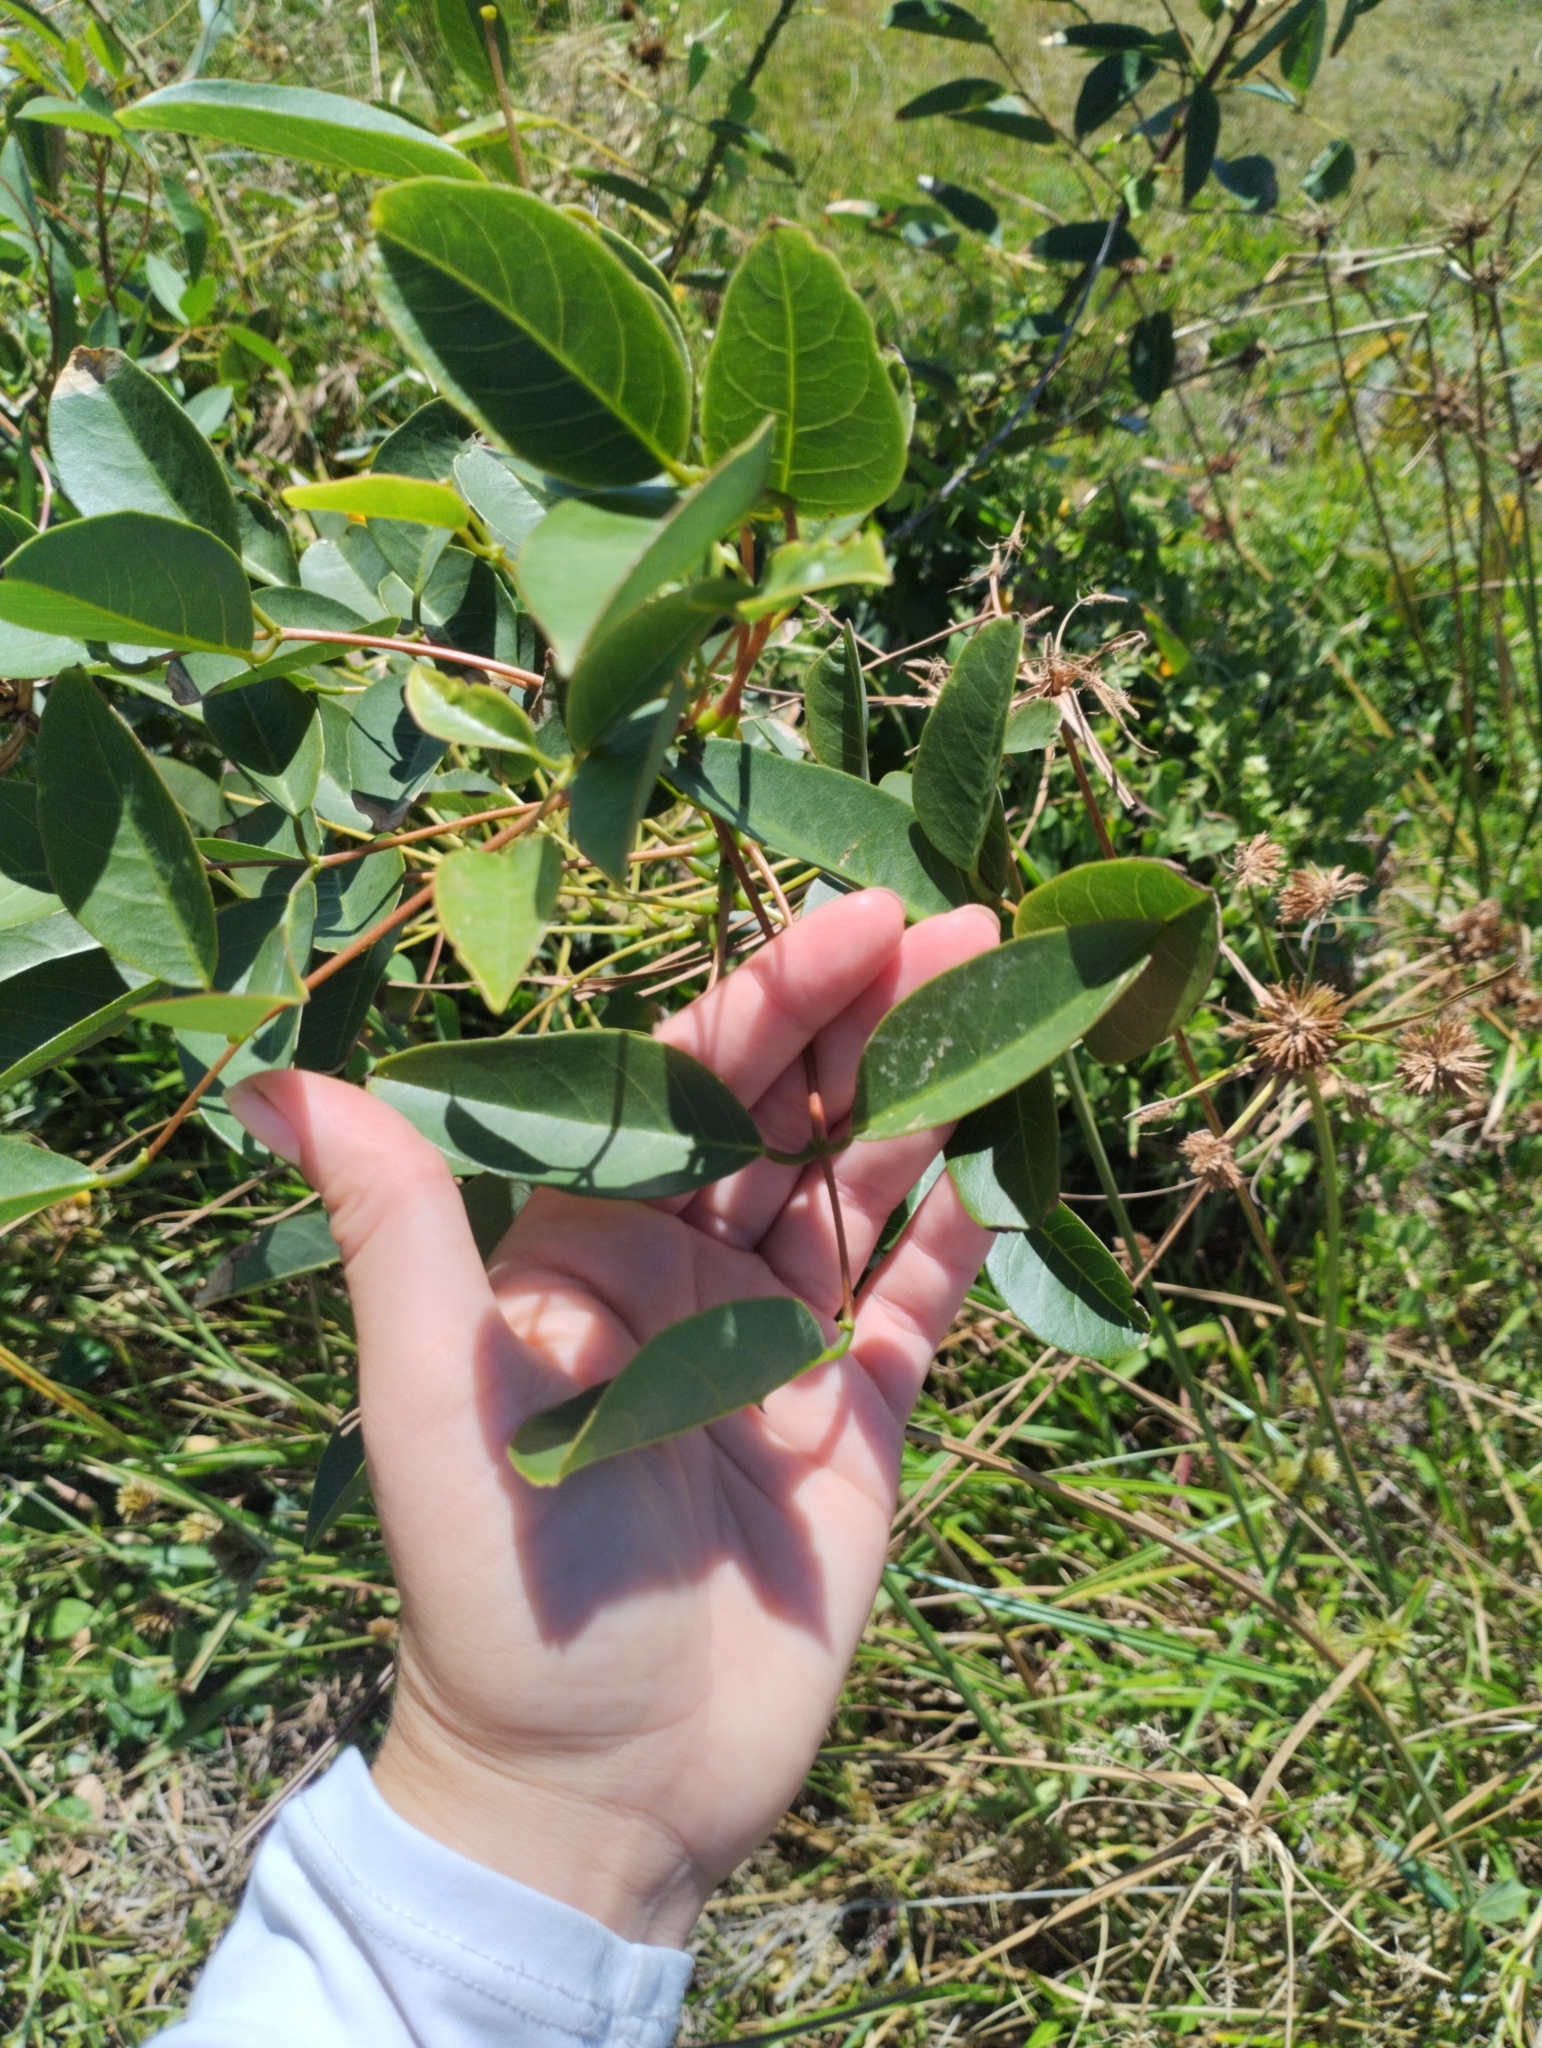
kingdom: Plantae
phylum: Tracheophyta
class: Magnoliopsida
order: Fabales
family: Fabaceae
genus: Erythrina
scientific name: Erythrina crista-galli
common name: Cockspur coral tree
